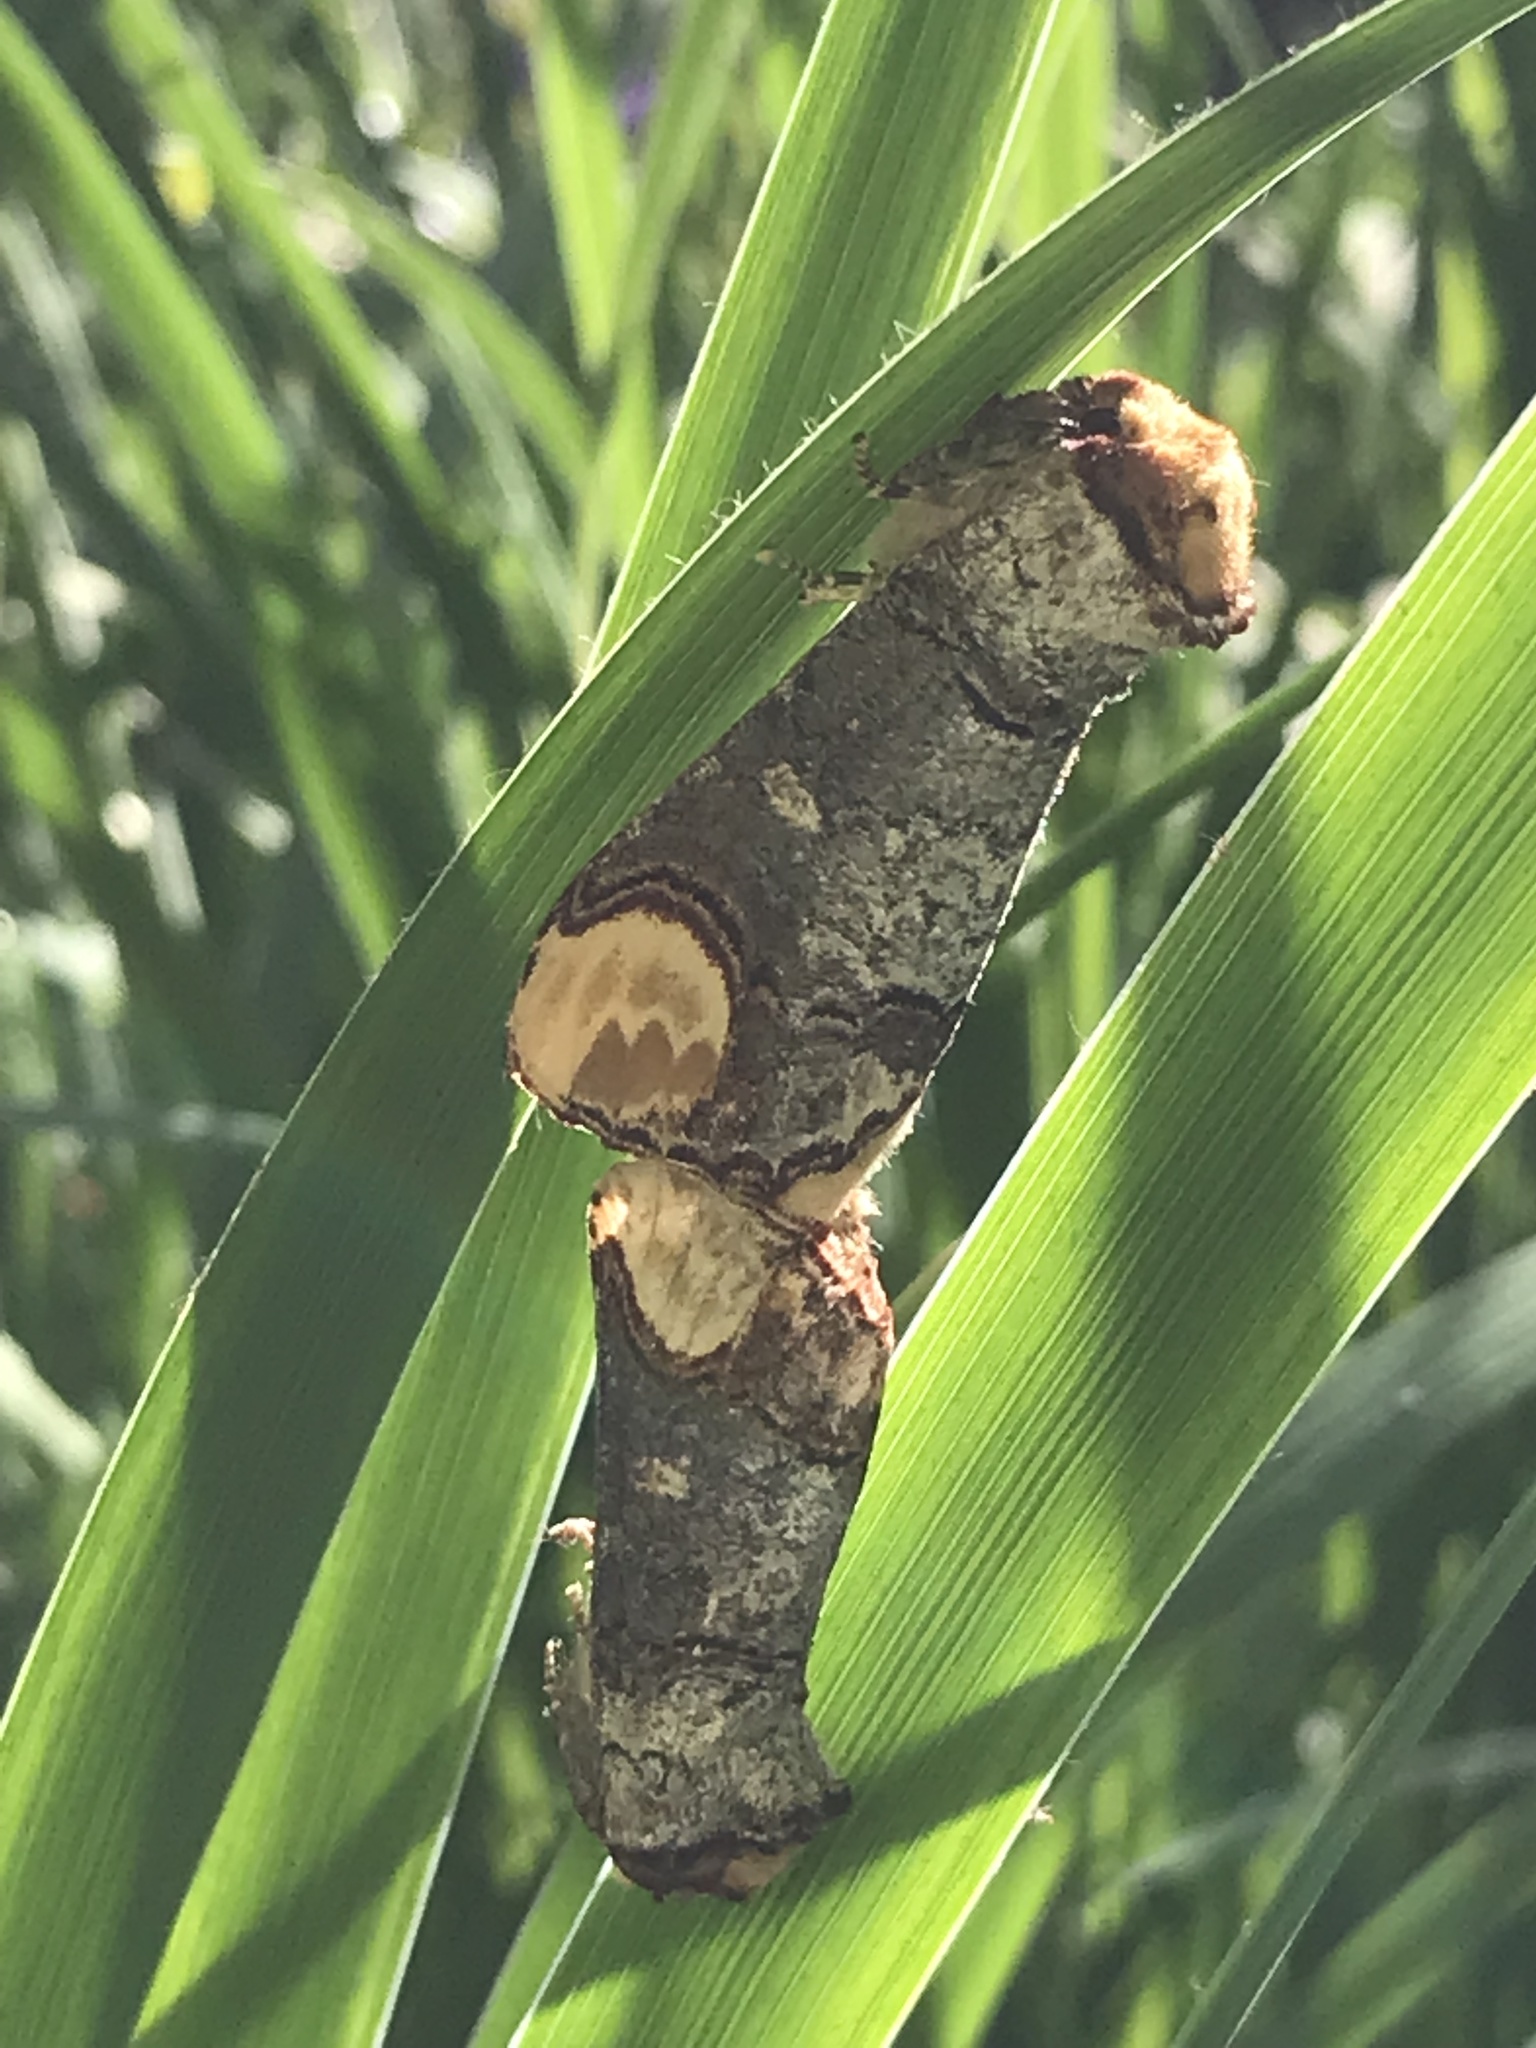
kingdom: Animalia
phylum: Arthropoda
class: Insecta
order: Lepidoptera
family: Notodontidae
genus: Phalera
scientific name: Phalera bucephala
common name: Buff-tip
